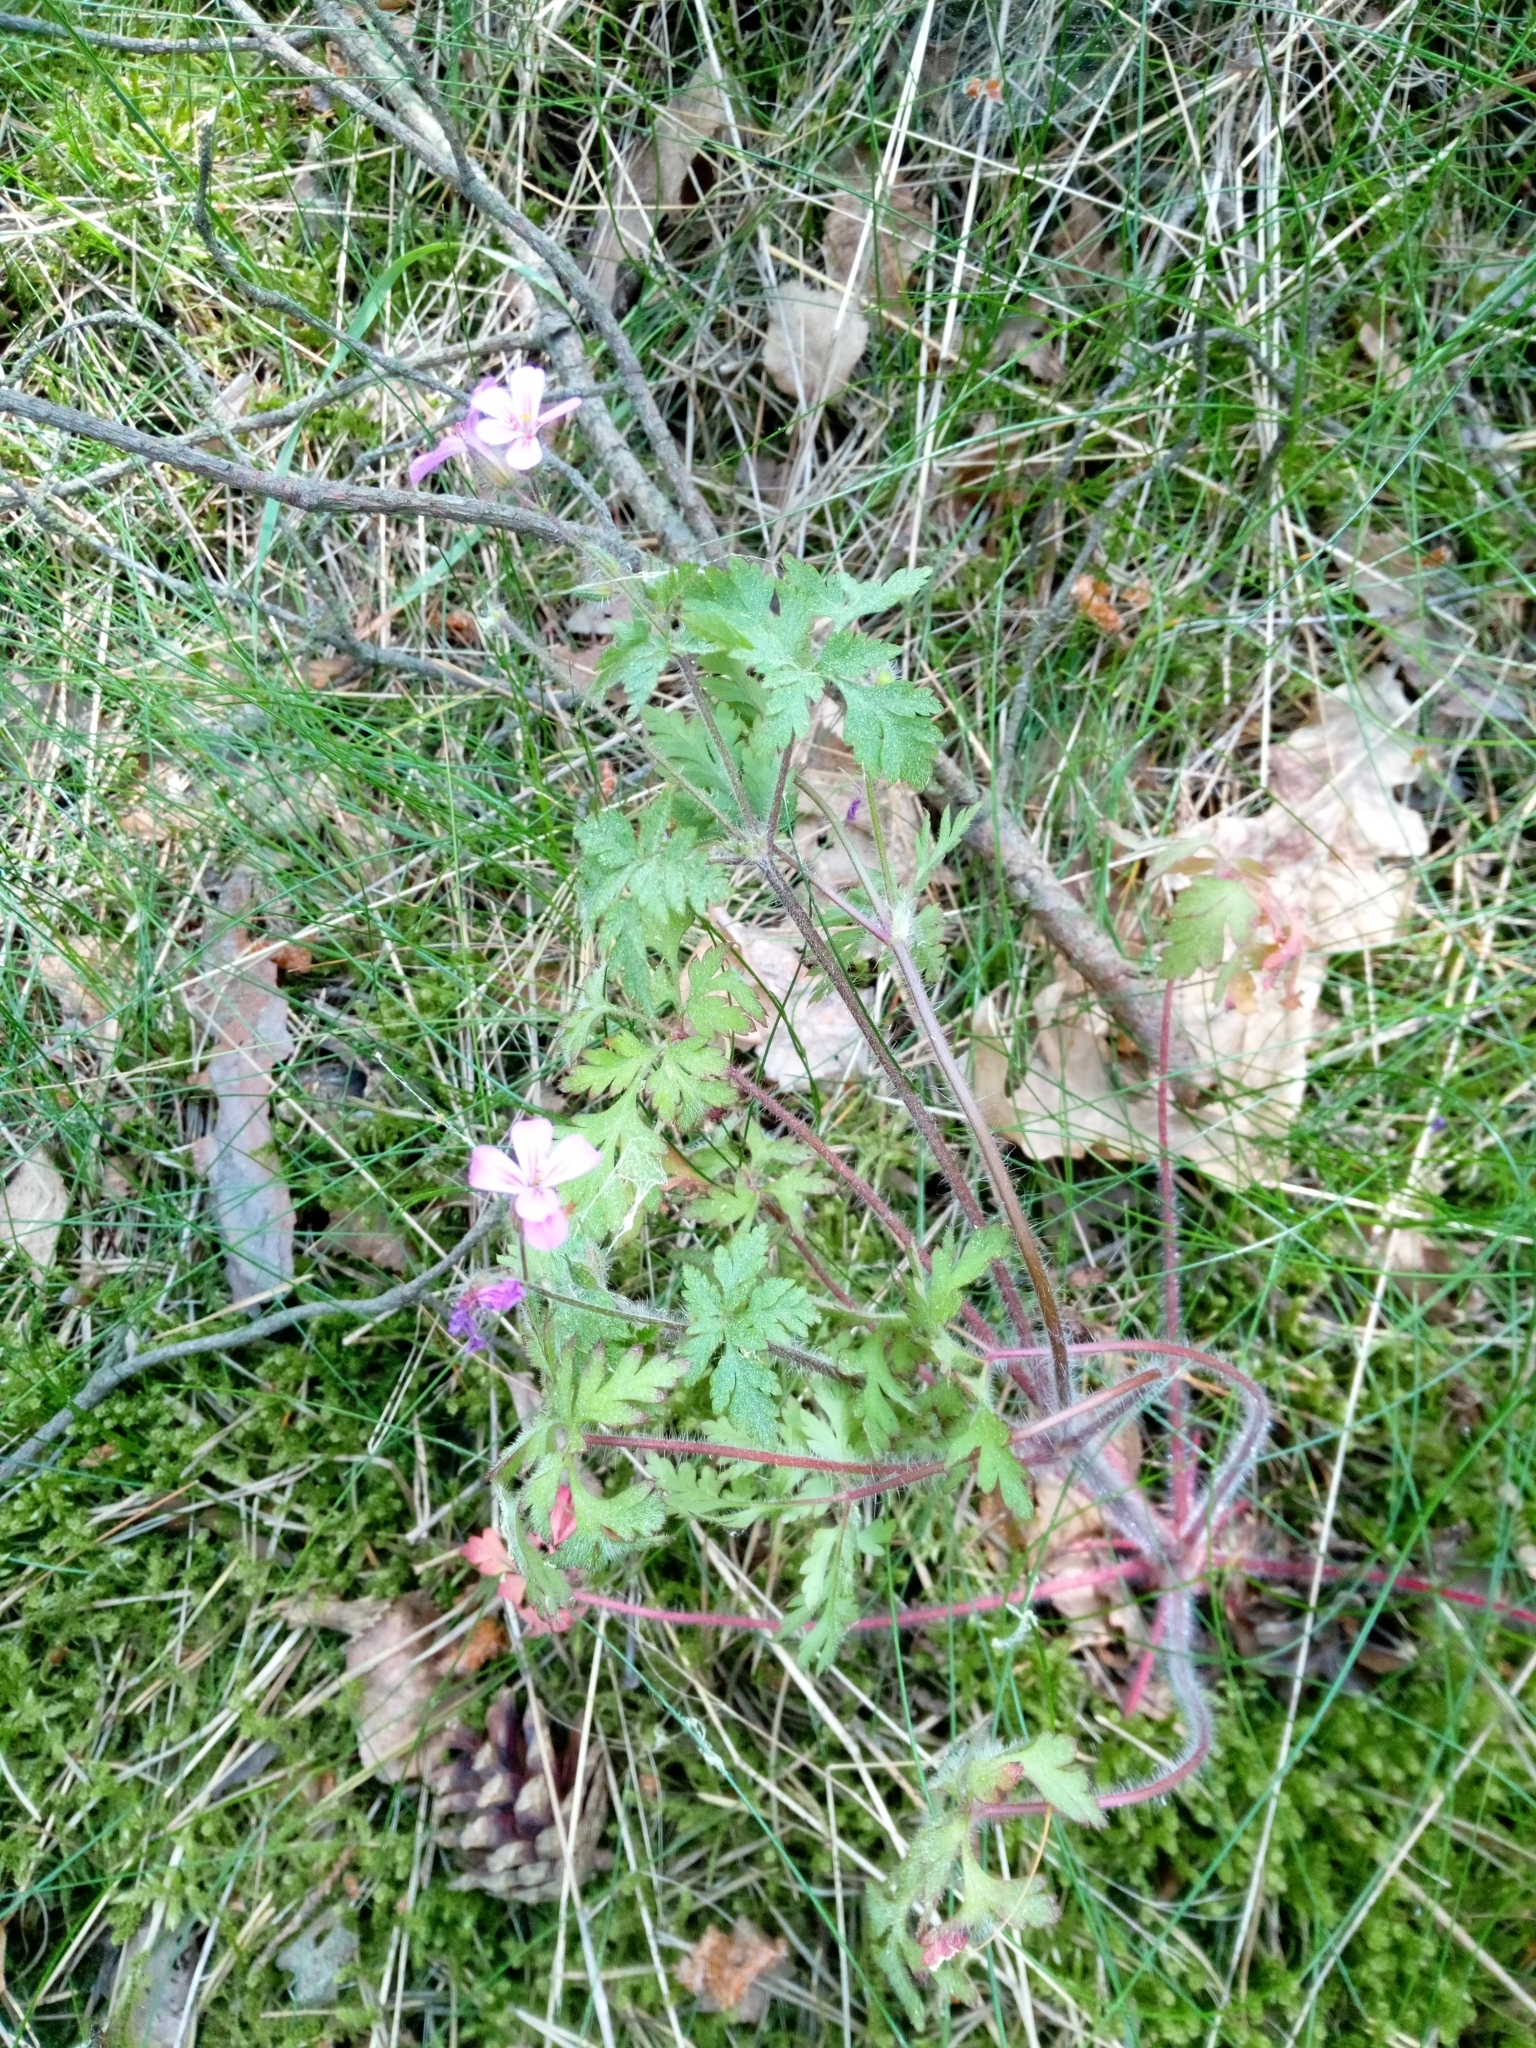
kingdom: Plantae
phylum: Tracheophyta
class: Magnoliopsida
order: Geraniales
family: Geraniaceae
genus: Geranium
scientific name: Geranium robertianum
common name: Herb-robert
